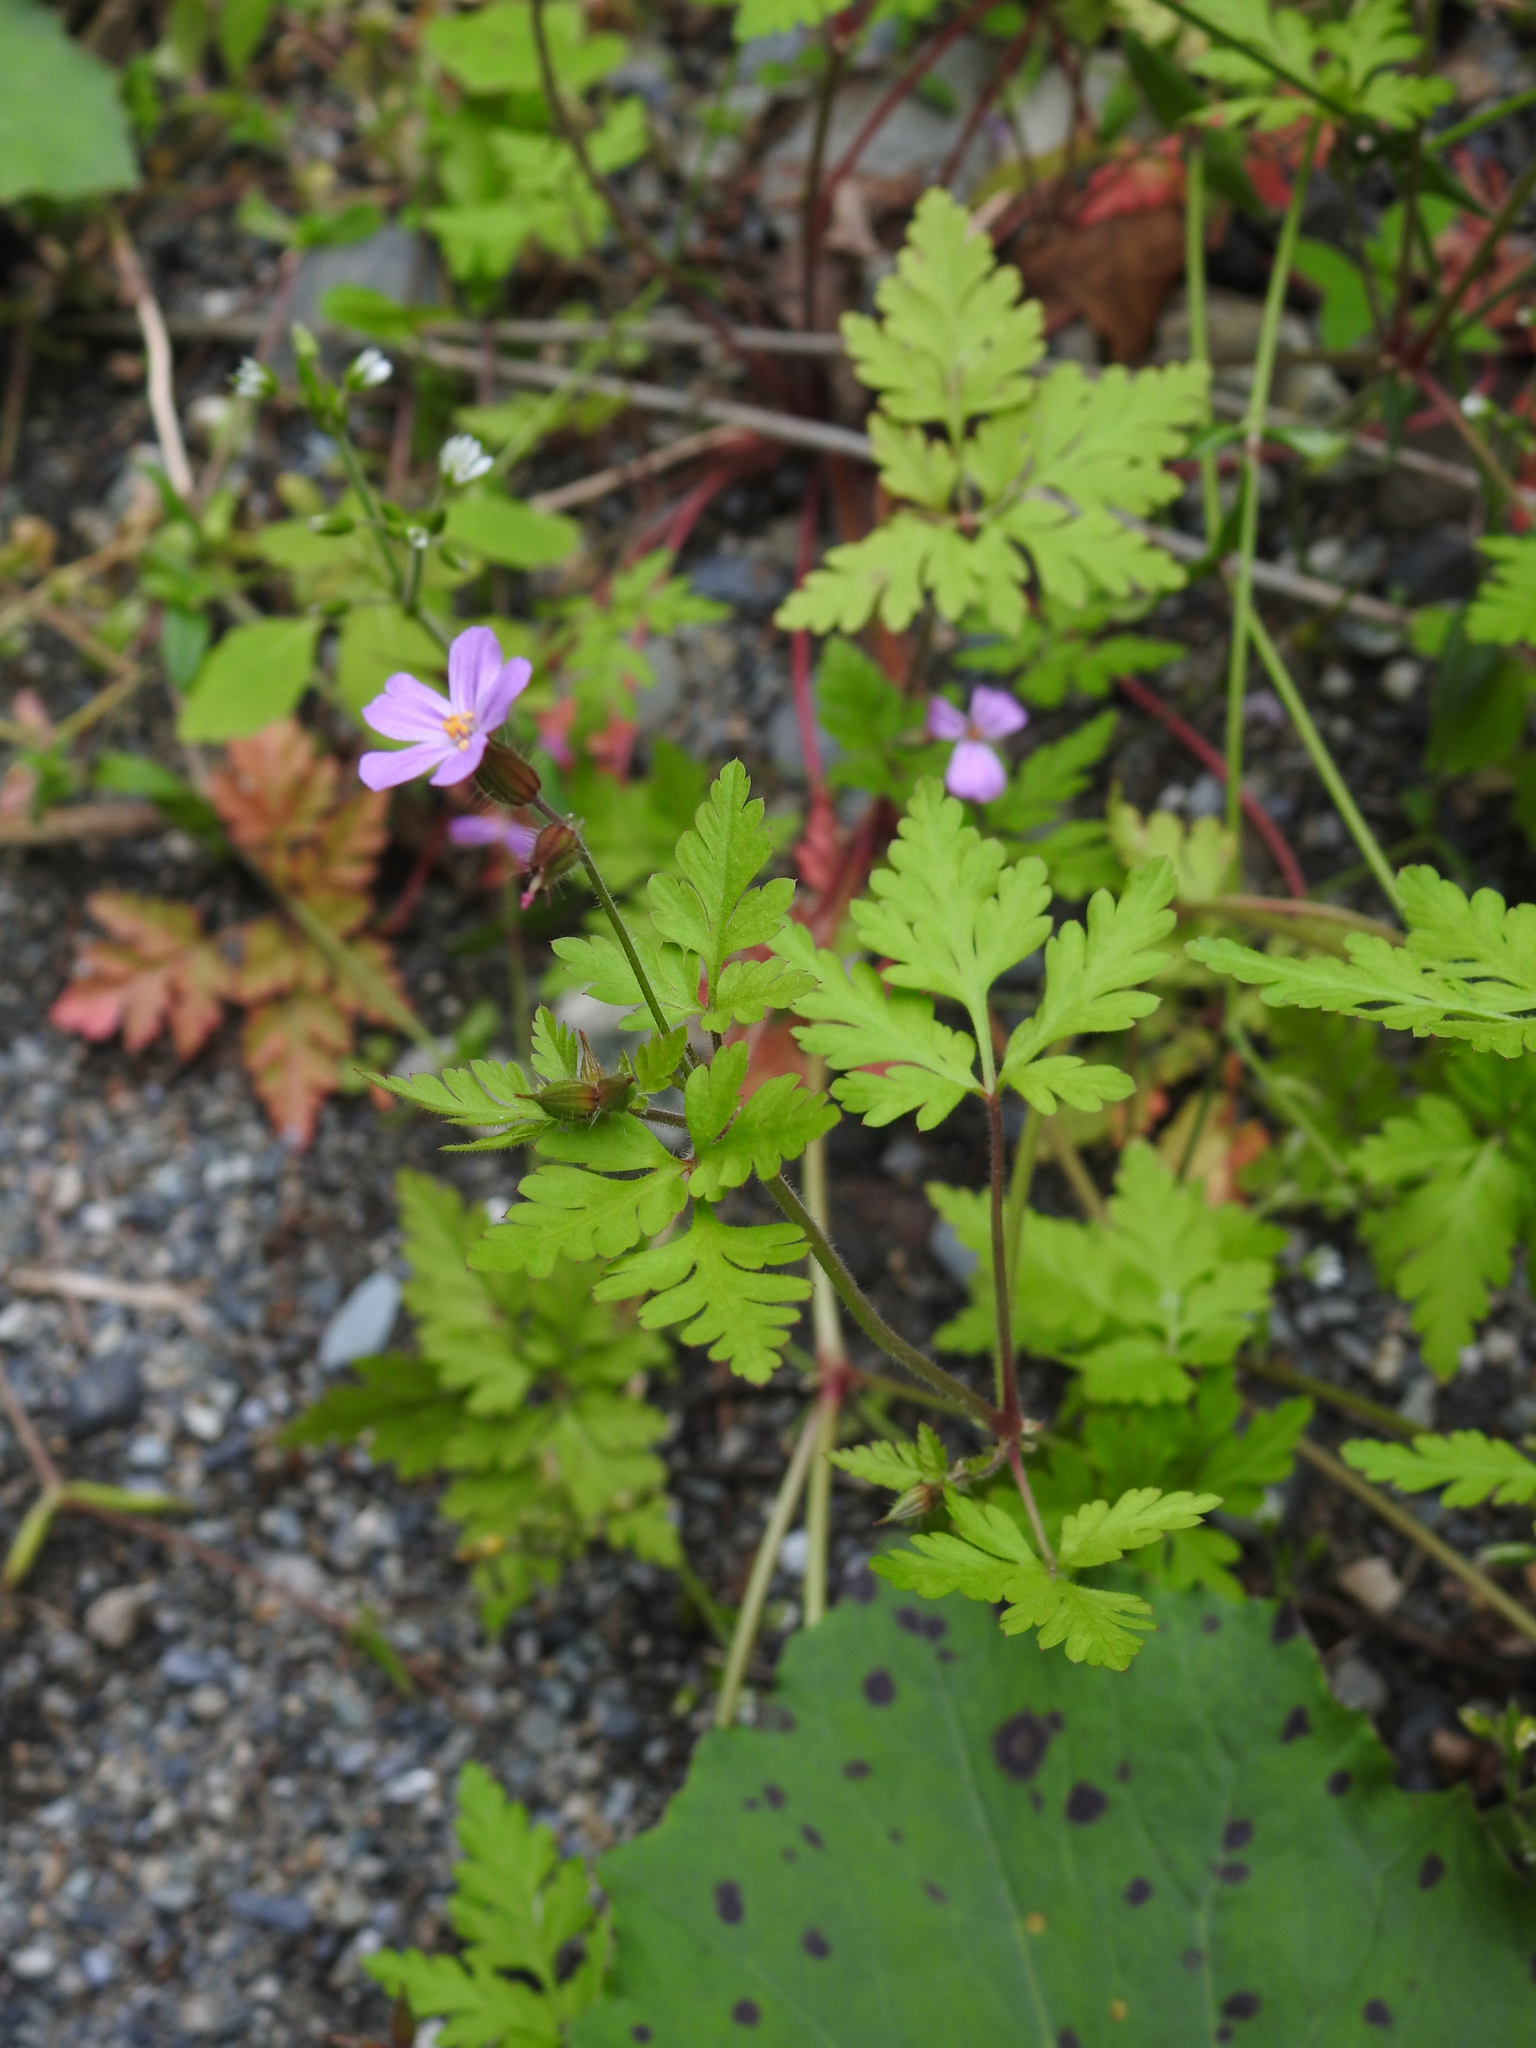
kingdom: Plantae
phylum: Tracheophyta
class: Magnoliopsida
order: Geraniales
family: Geraniaceae
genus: Geranium
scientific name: Geranium robertianum
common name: Herb-robert
